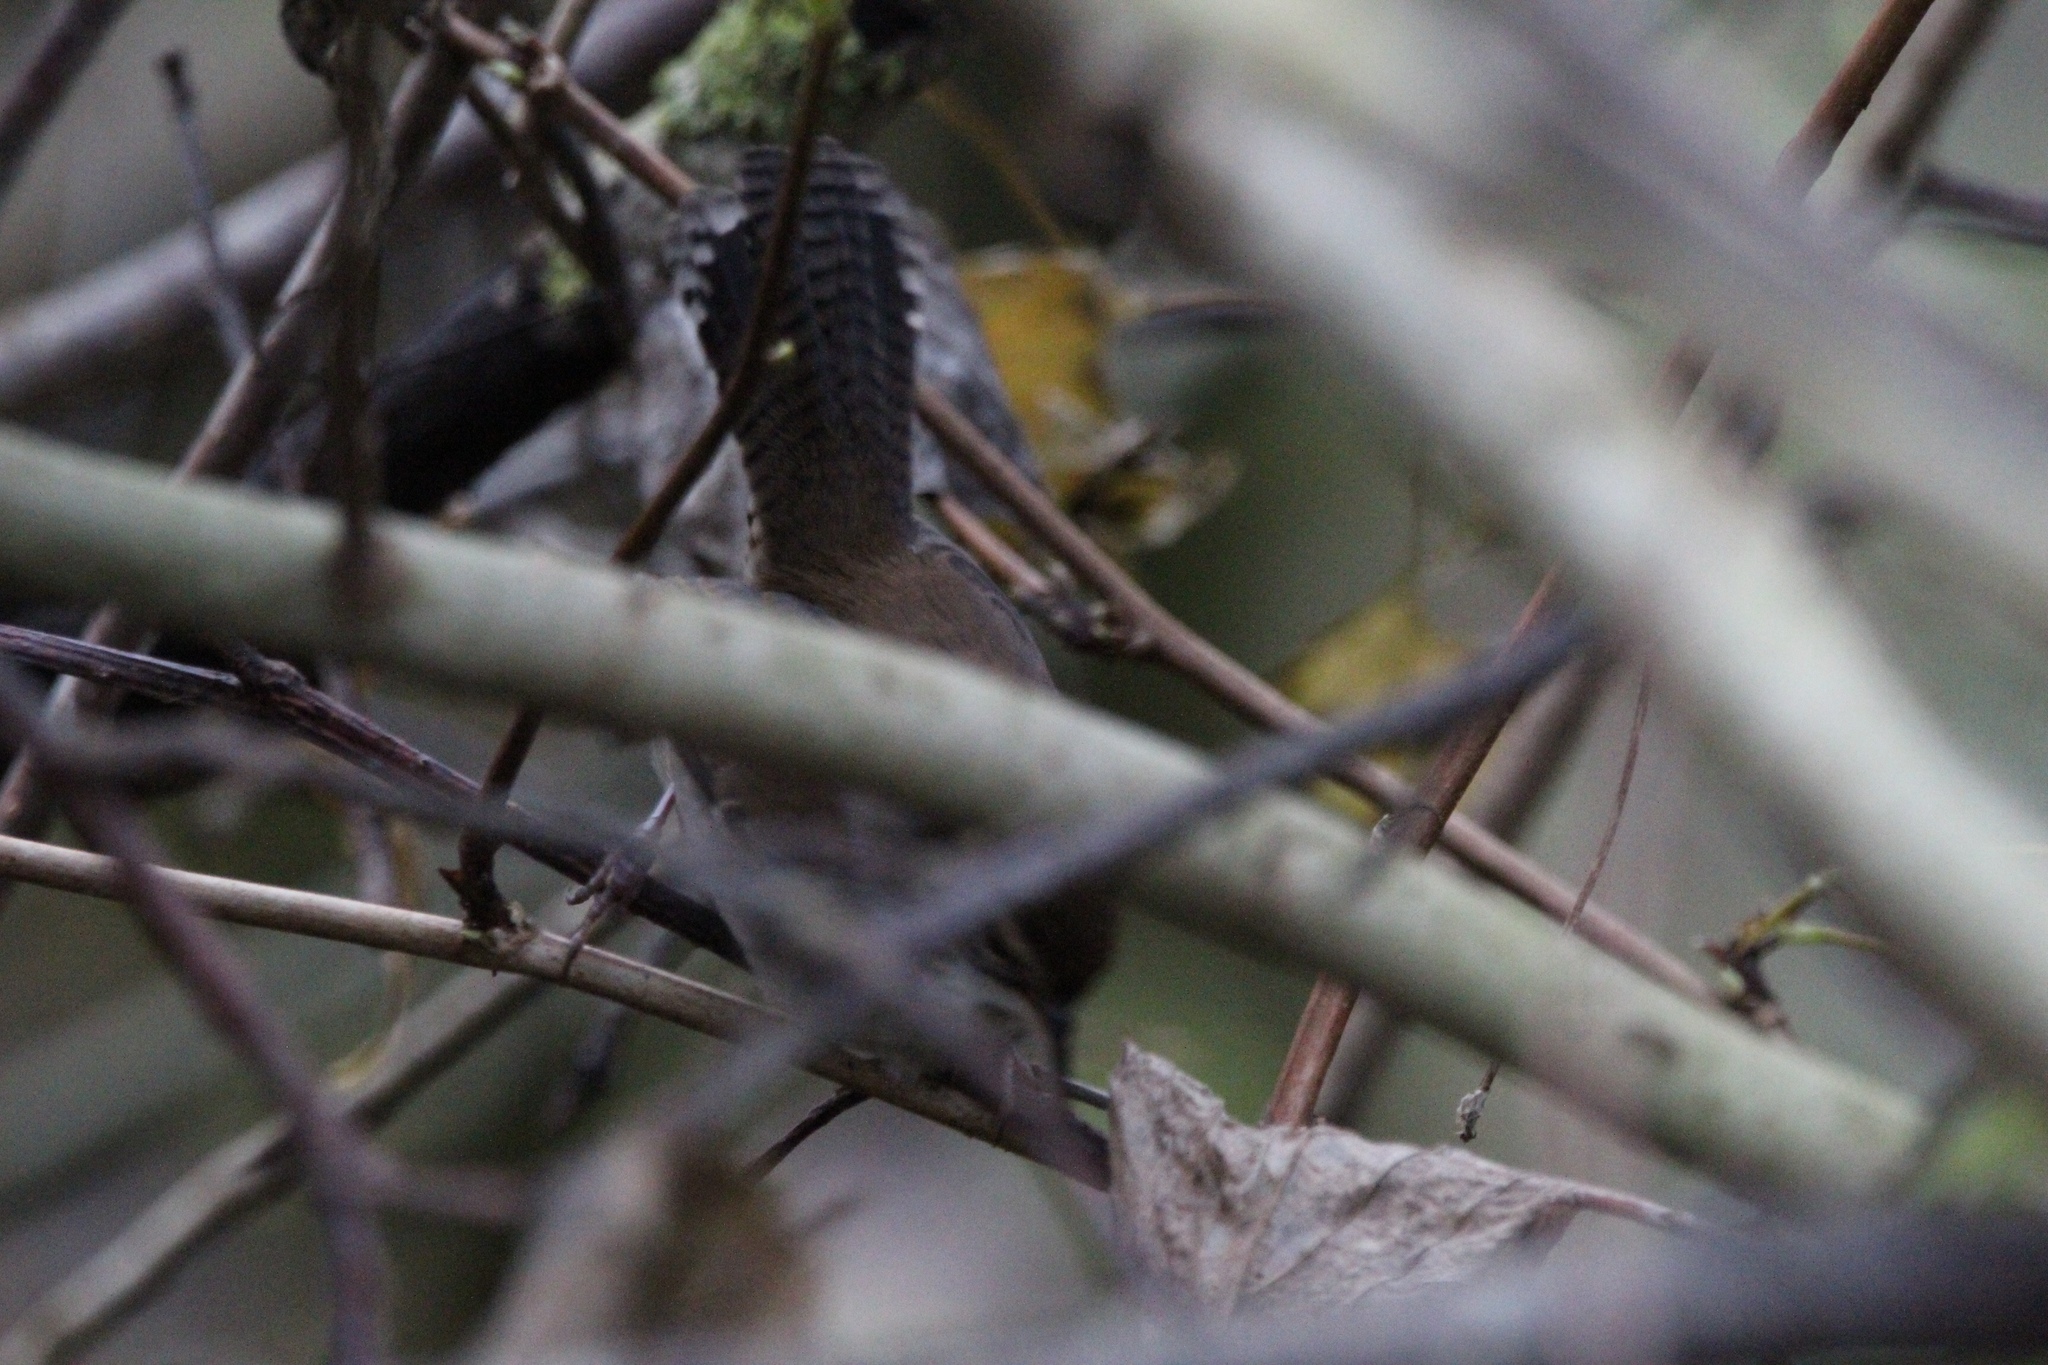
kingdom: Animalia
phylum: Chordata
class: Aves
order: Passeriformes
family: Troglodytidae
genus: Thryomanes
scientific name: Thryomanes bewickii
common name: Bewick's wren
